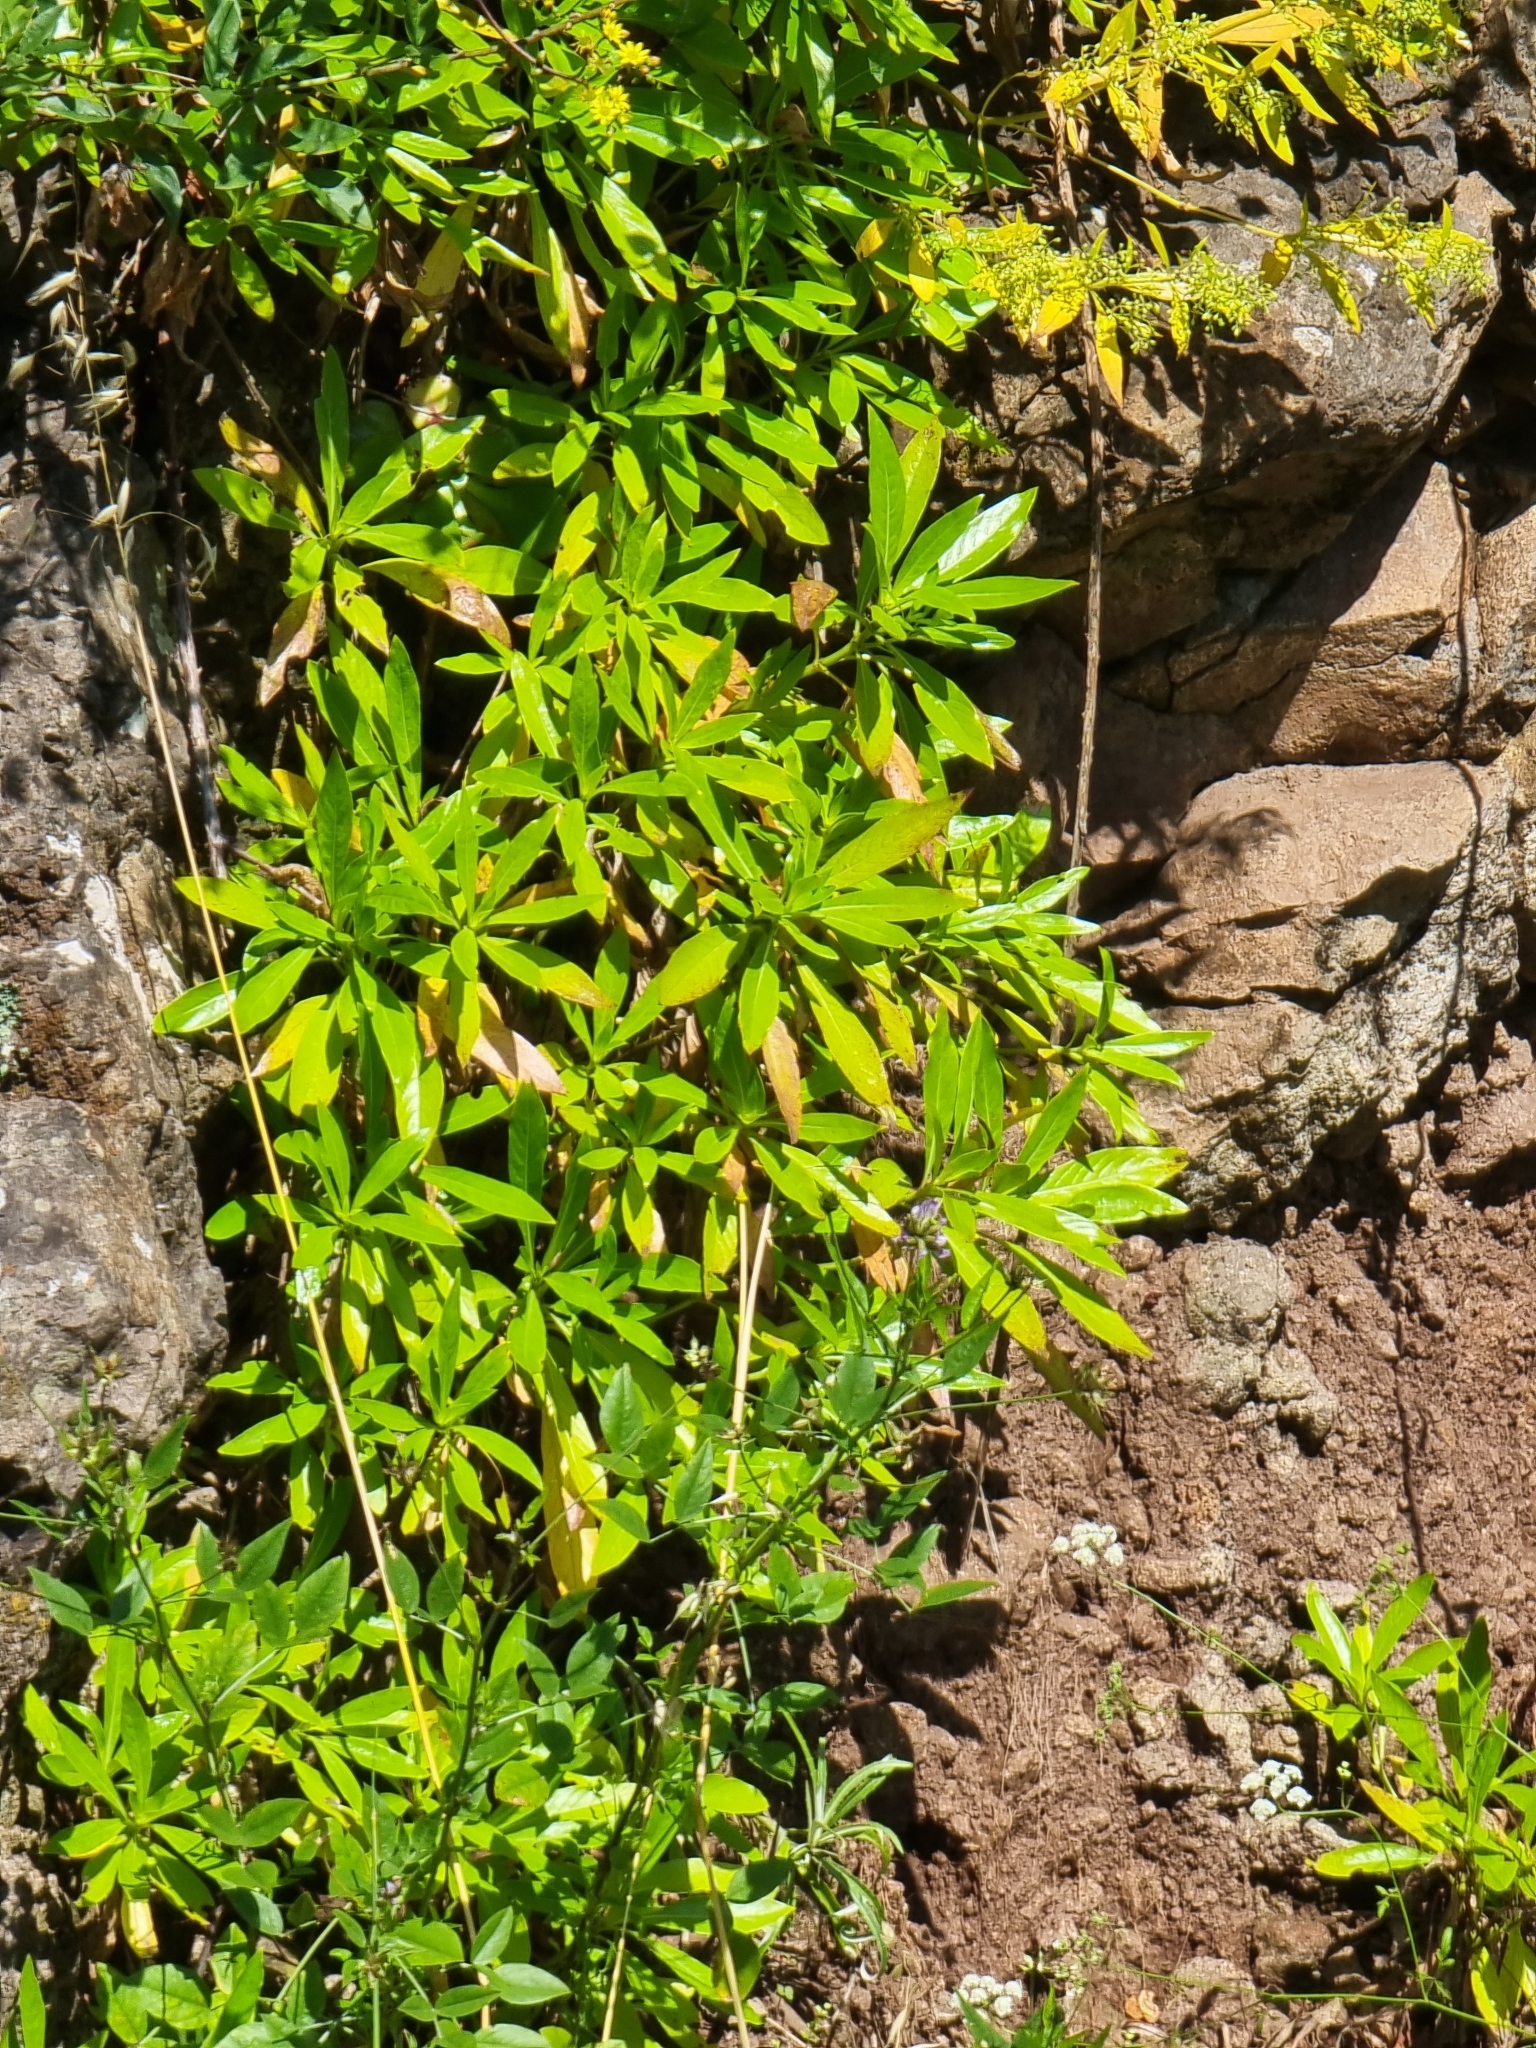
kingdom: Plantae
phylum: Tracheophyta
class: Magnoliopsida
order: Gentianales
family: Rubiaceae
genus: Phyllis
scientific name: Phyllis nobla
